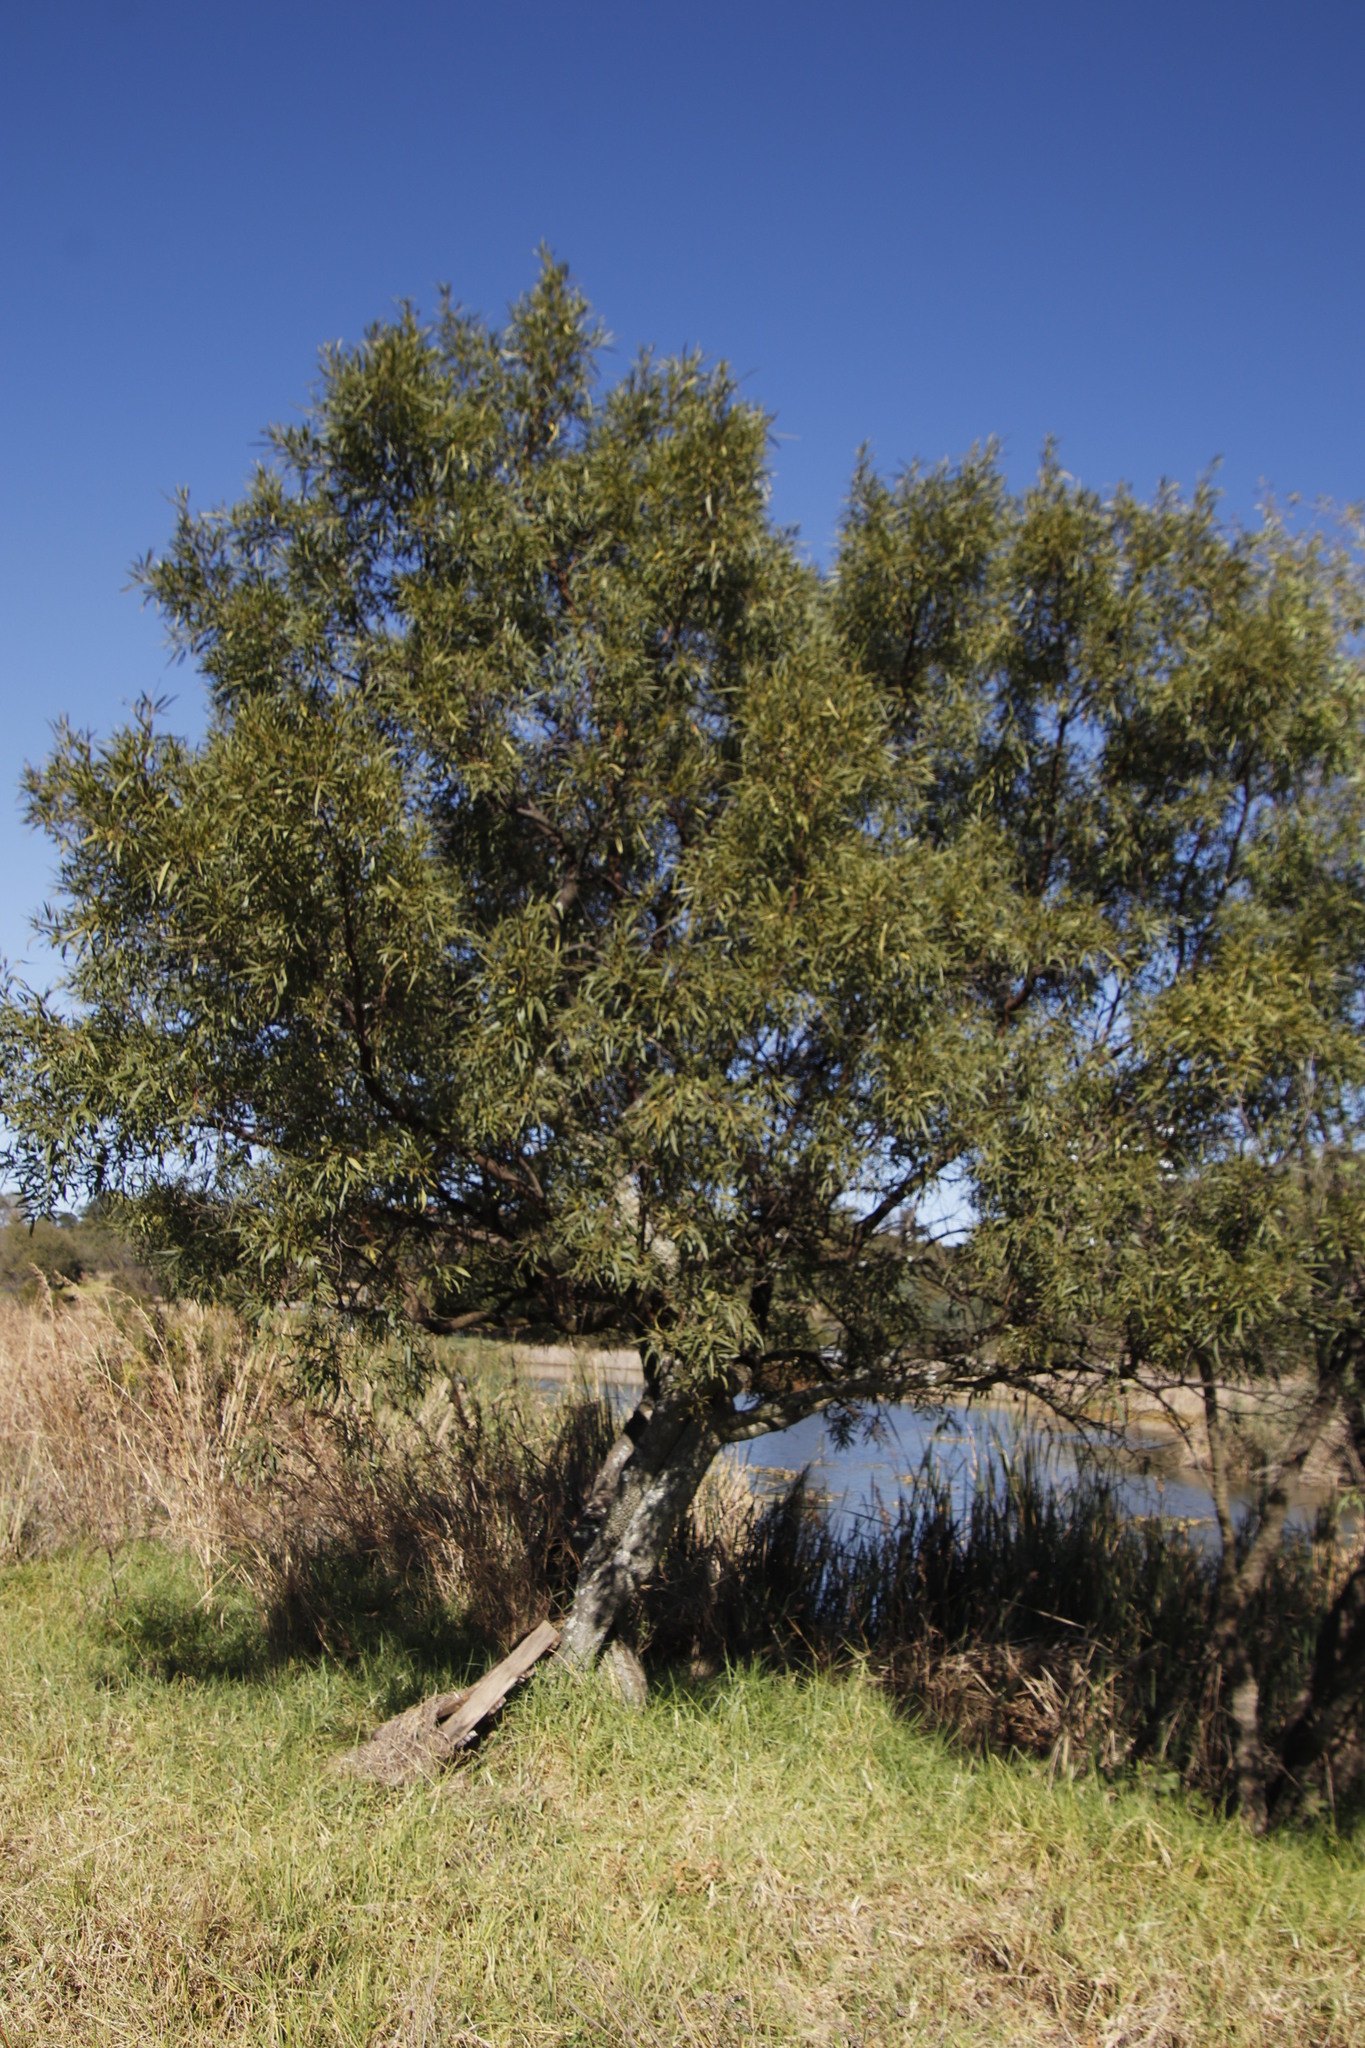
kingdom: Plantae
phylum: Tracheophyta
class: Magnoliopsida
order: Sapindales
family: Anacardiaceae
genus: Searsia
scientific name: Searsia lancea
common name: Cashew
